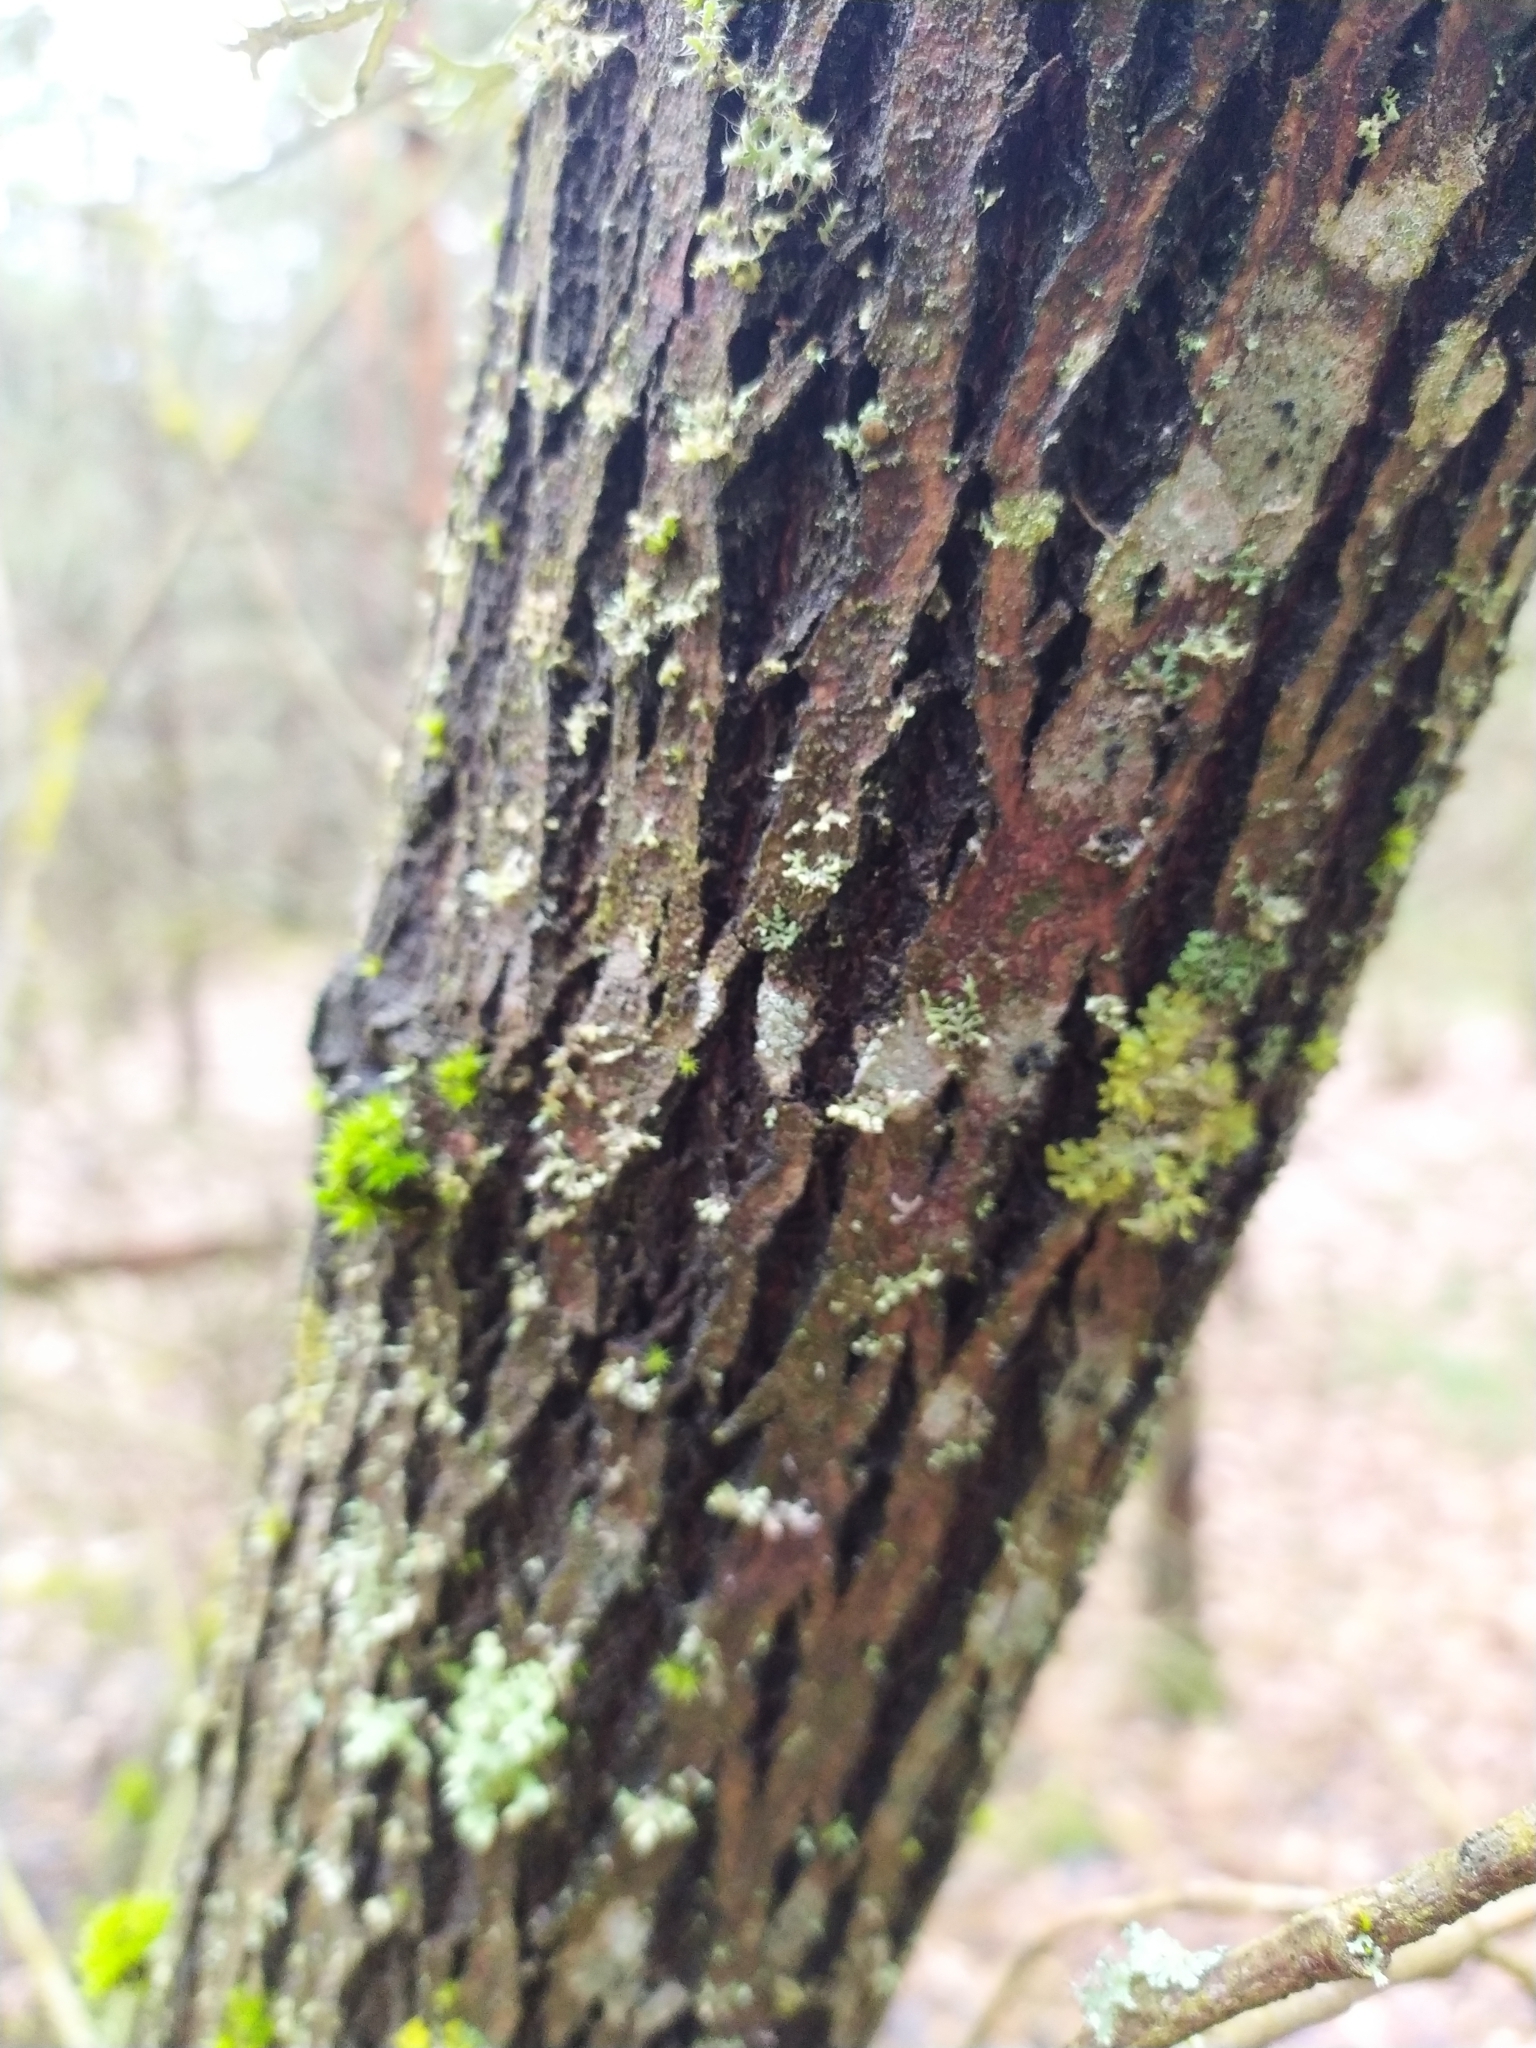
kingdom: Plantae
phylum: Tracheophyta
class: Magnoliopsida
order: Malpighiales
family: Salicaceae
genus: Salix
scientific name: Salix caprea
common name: Goat willow
